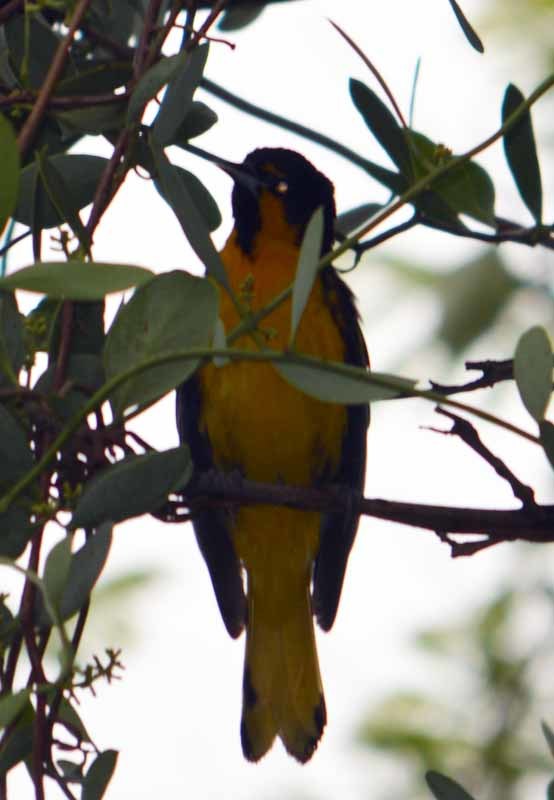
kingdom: Animalia
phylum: Chordata
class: Aves
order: Passeriformes
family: Icteridae
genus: Icterus
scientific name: Icterus abeillei
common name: Black-backed oriole
